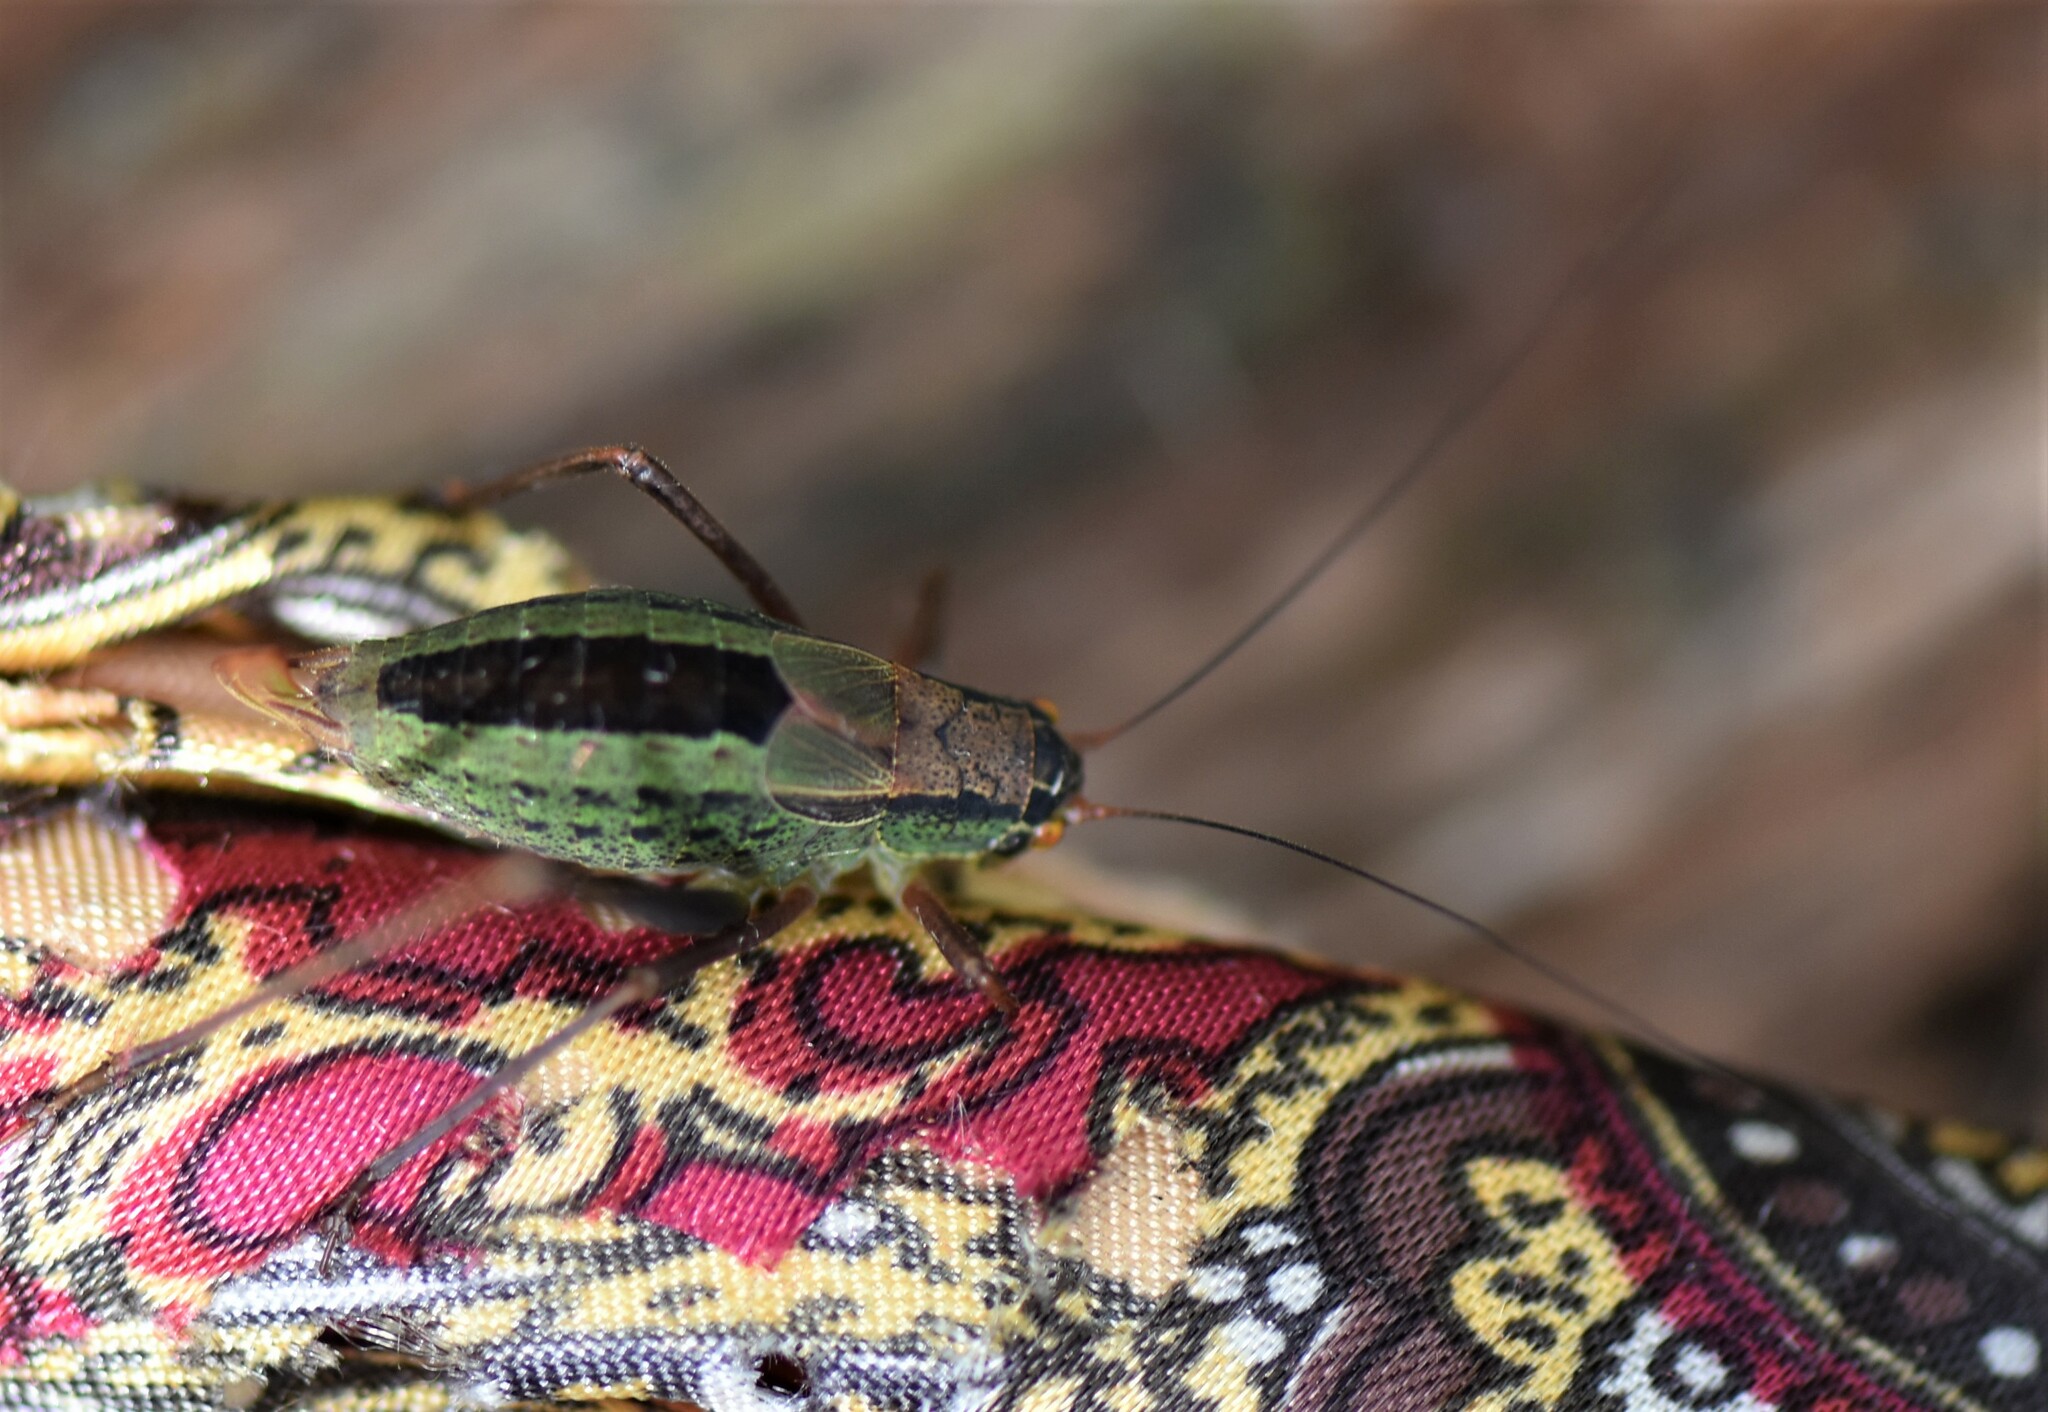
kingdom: Animalia
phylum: Arthropoda
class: Insecta
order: Orthoptera
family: Tettigoniidae
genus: Anisophya
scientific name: Anisophya melanochloris
